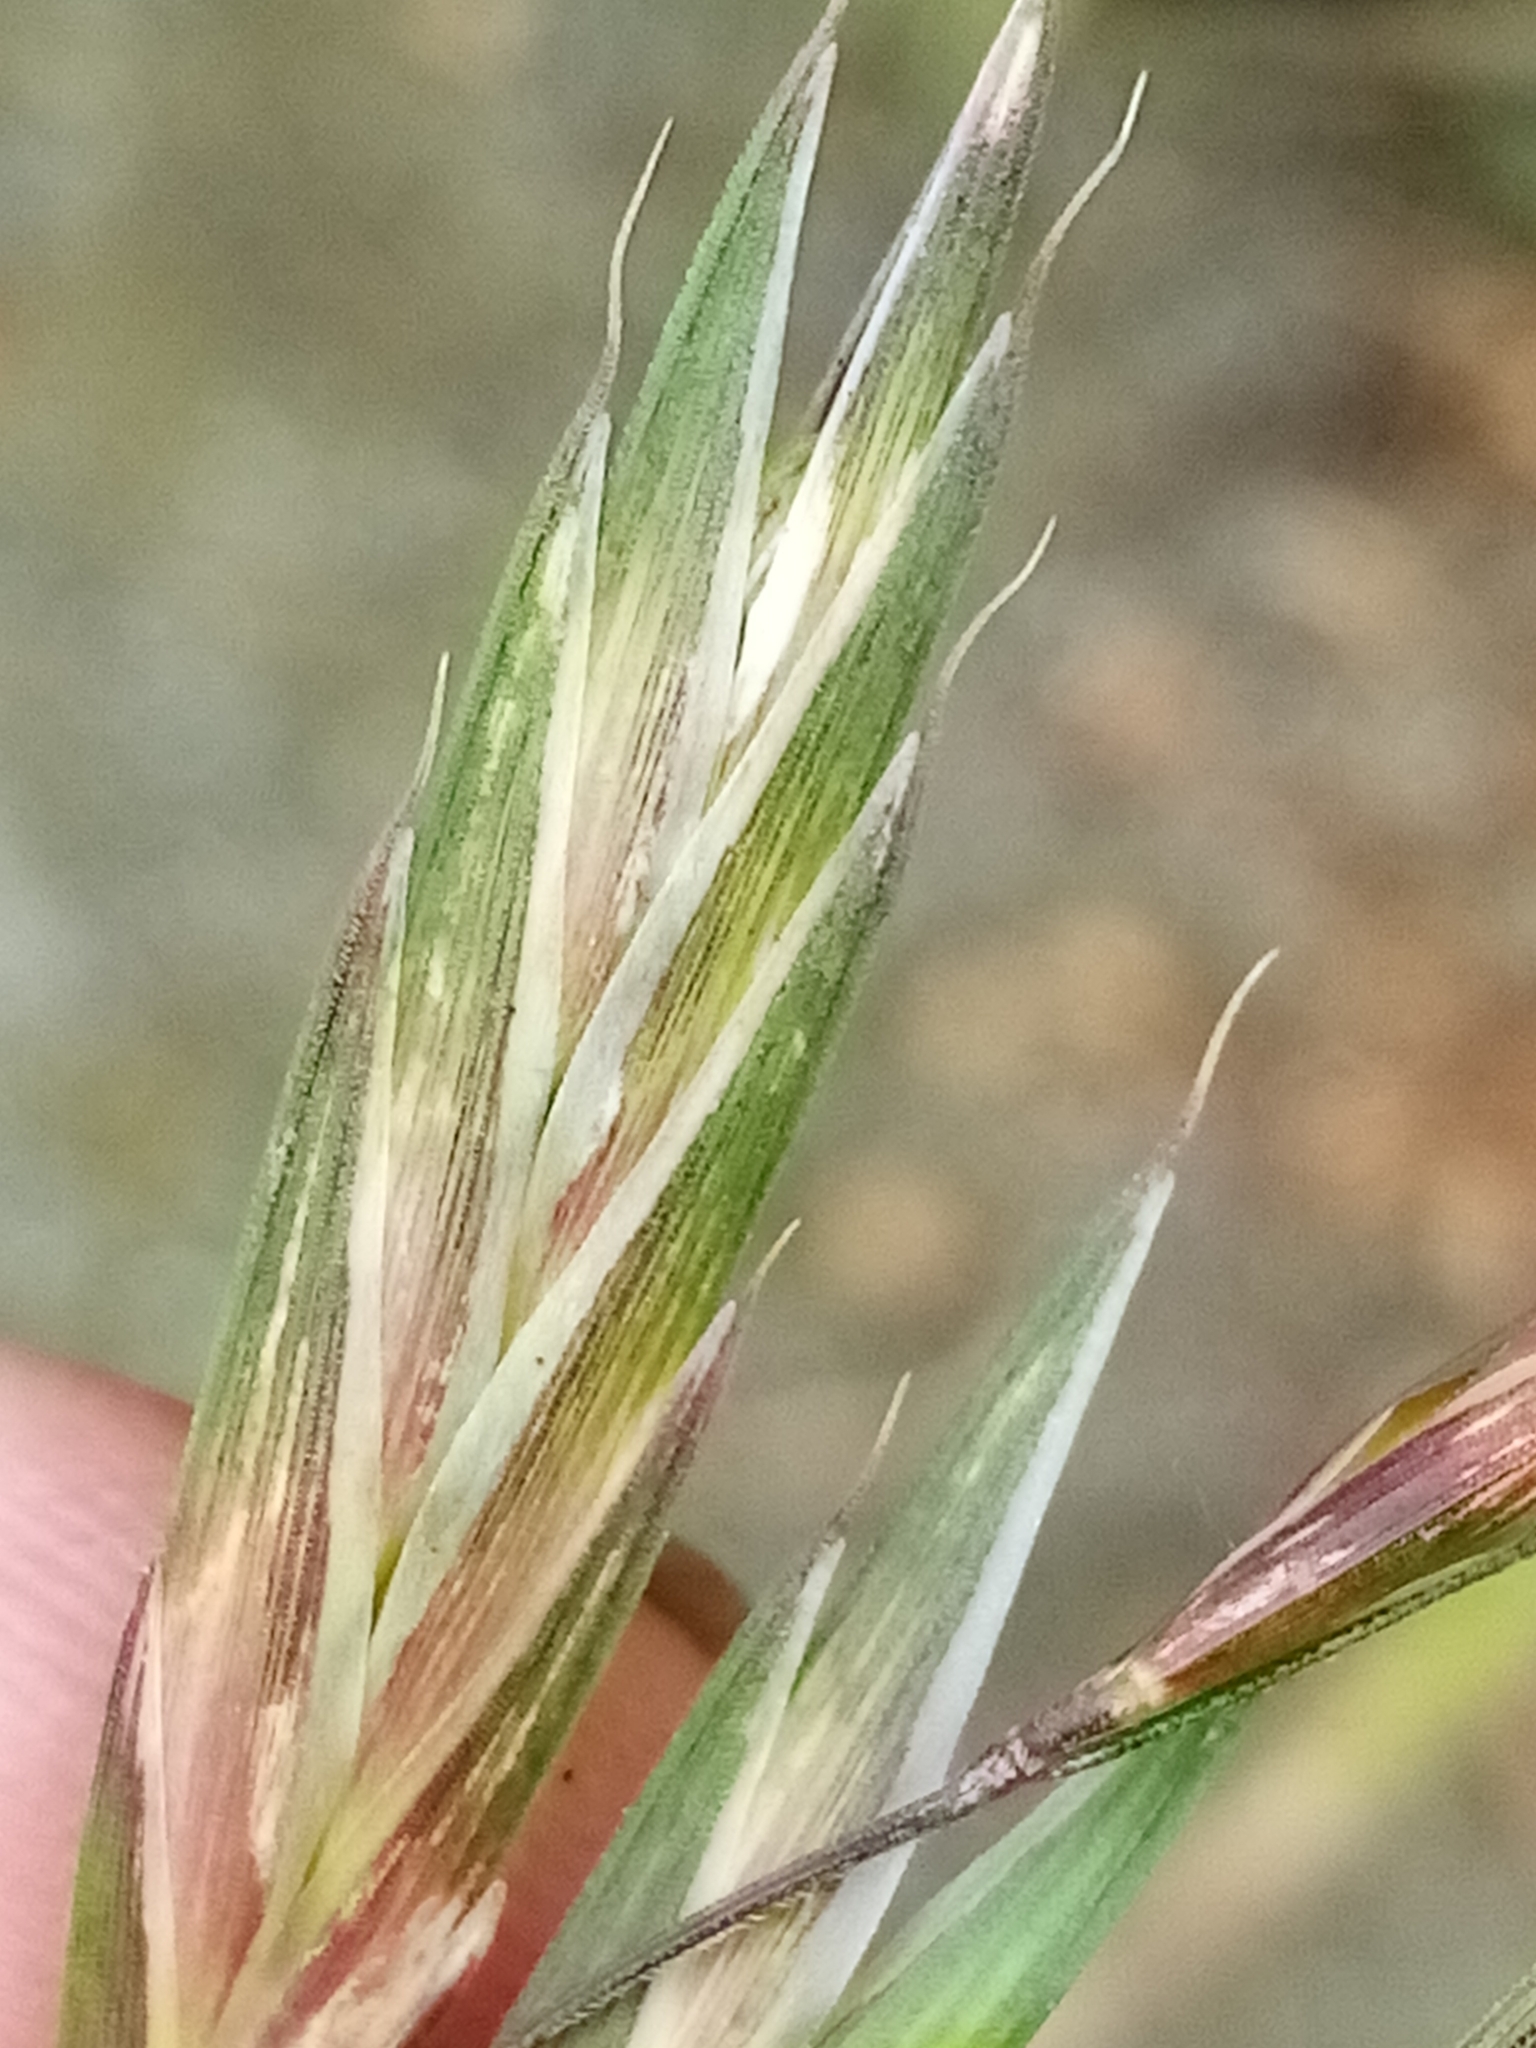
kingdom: Plantae
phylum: Tracheophyta
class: Liliopsida
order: Poales
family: Poaceae
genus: Bromus
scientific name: Bromus catharticus
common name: Rescuegrass
